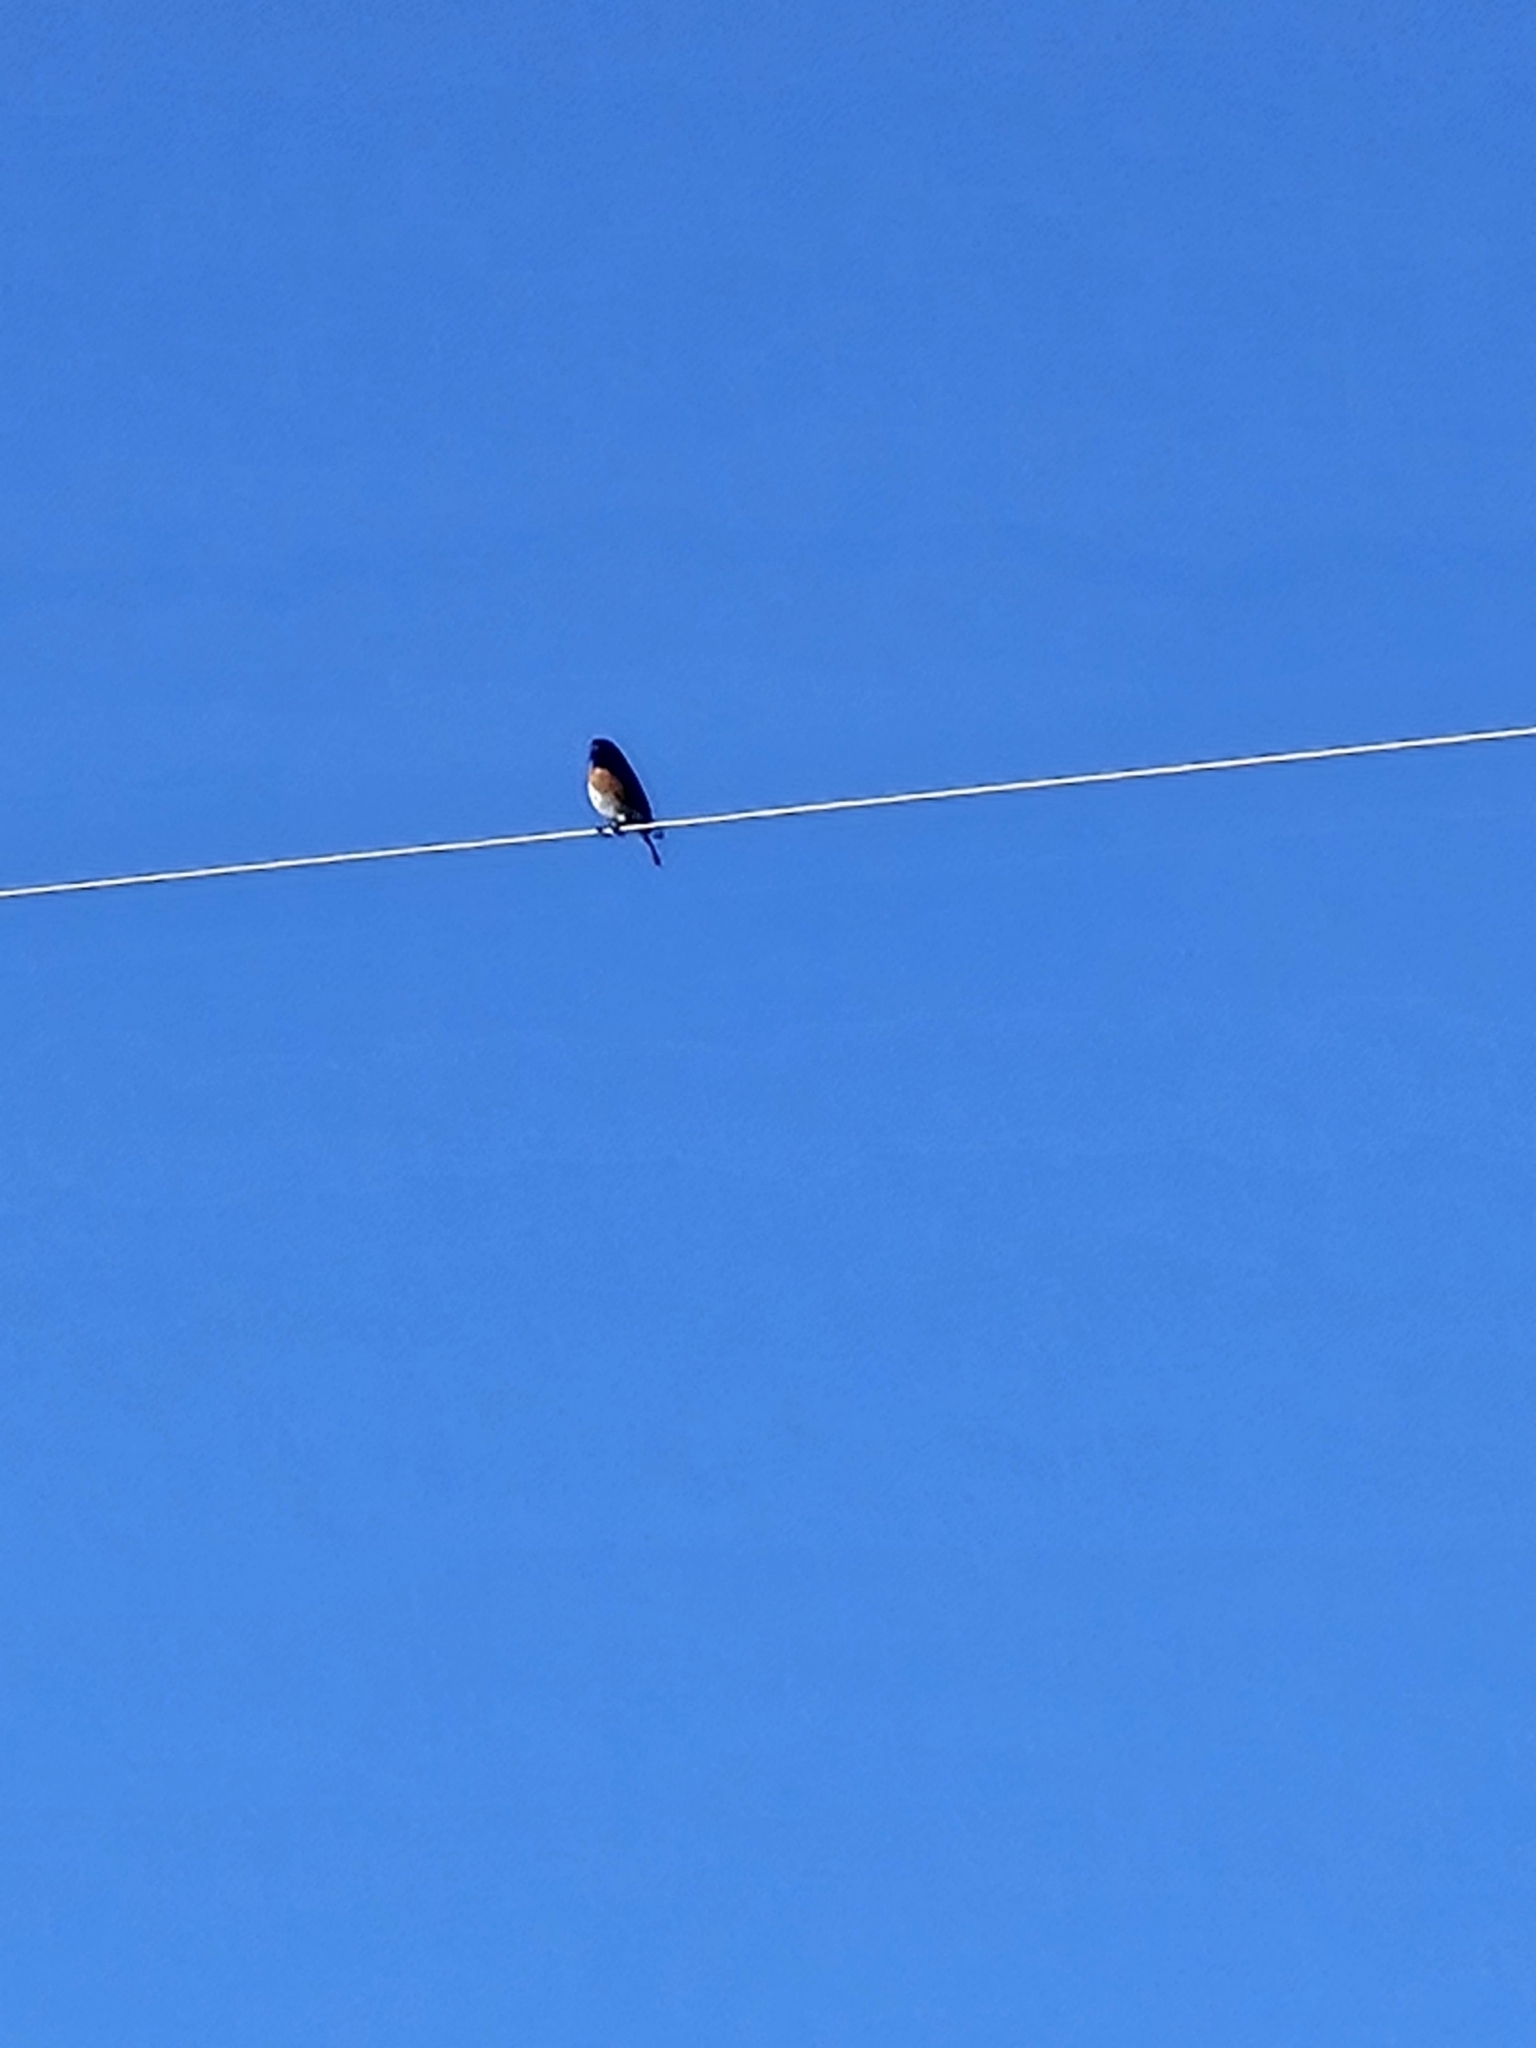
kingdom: Animalia
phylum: Chordata
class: Aves
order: Passeriformes
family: Turdidae
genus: Sialia
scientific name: Sialia sialis
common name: Eastern bluebird
